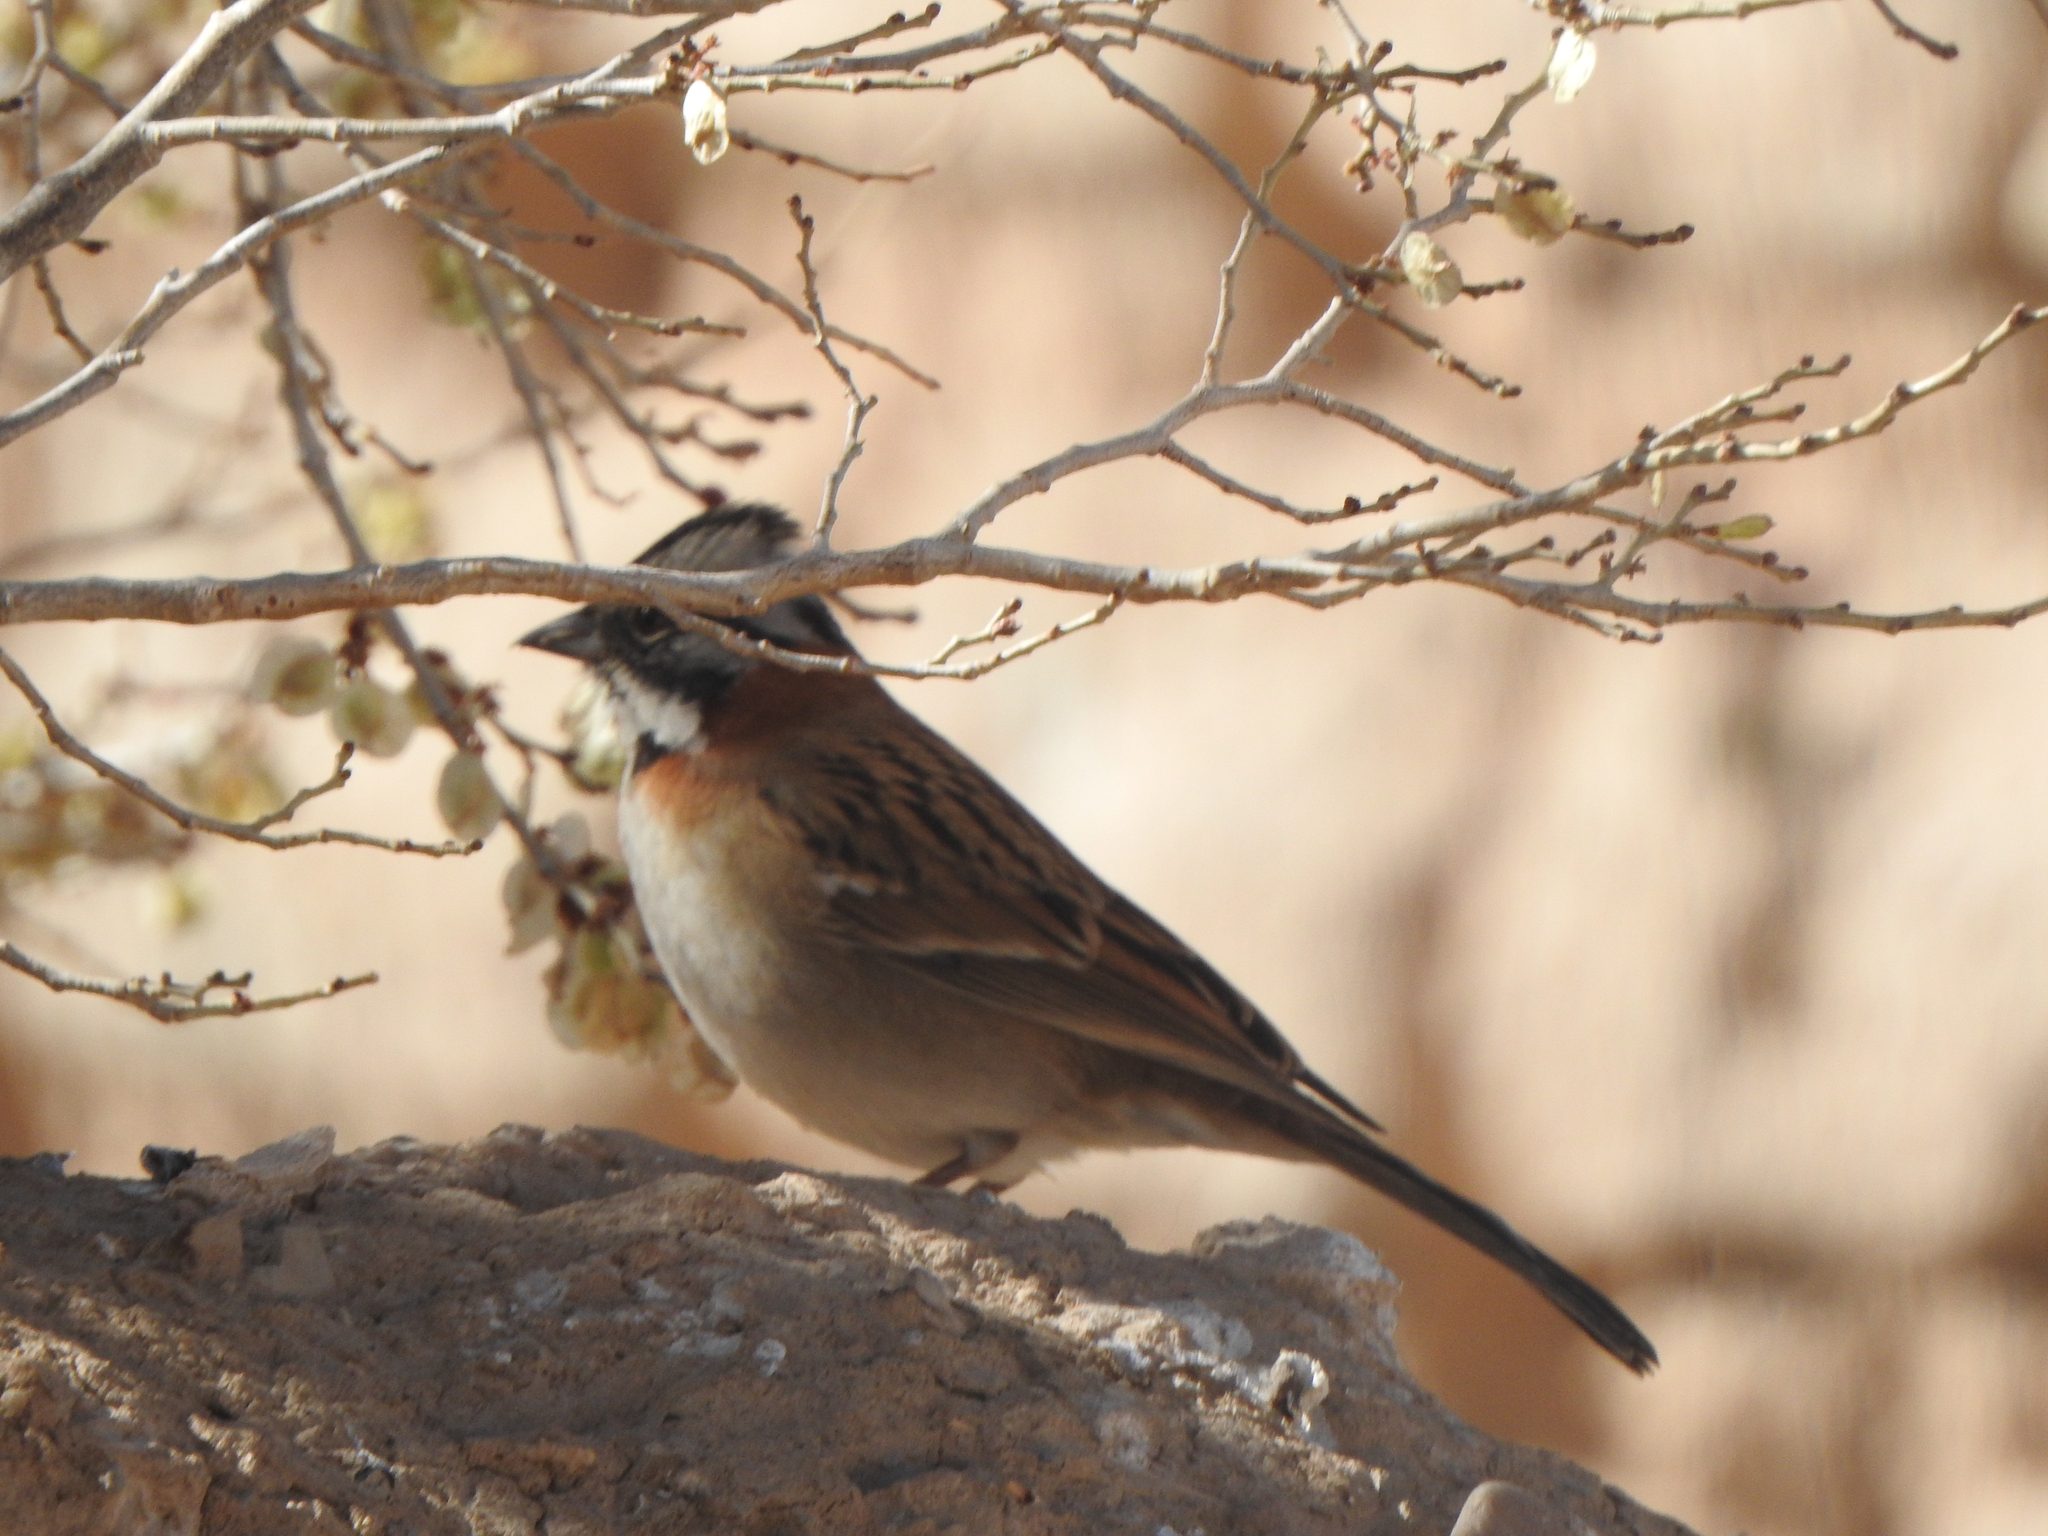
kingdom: Animalia
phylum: Chordata
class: Aves
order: Passeriformes
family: Passerellidae
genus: Zonotrichia
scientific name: Zonotrichia capensis
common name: Rufous-collared sparrow
